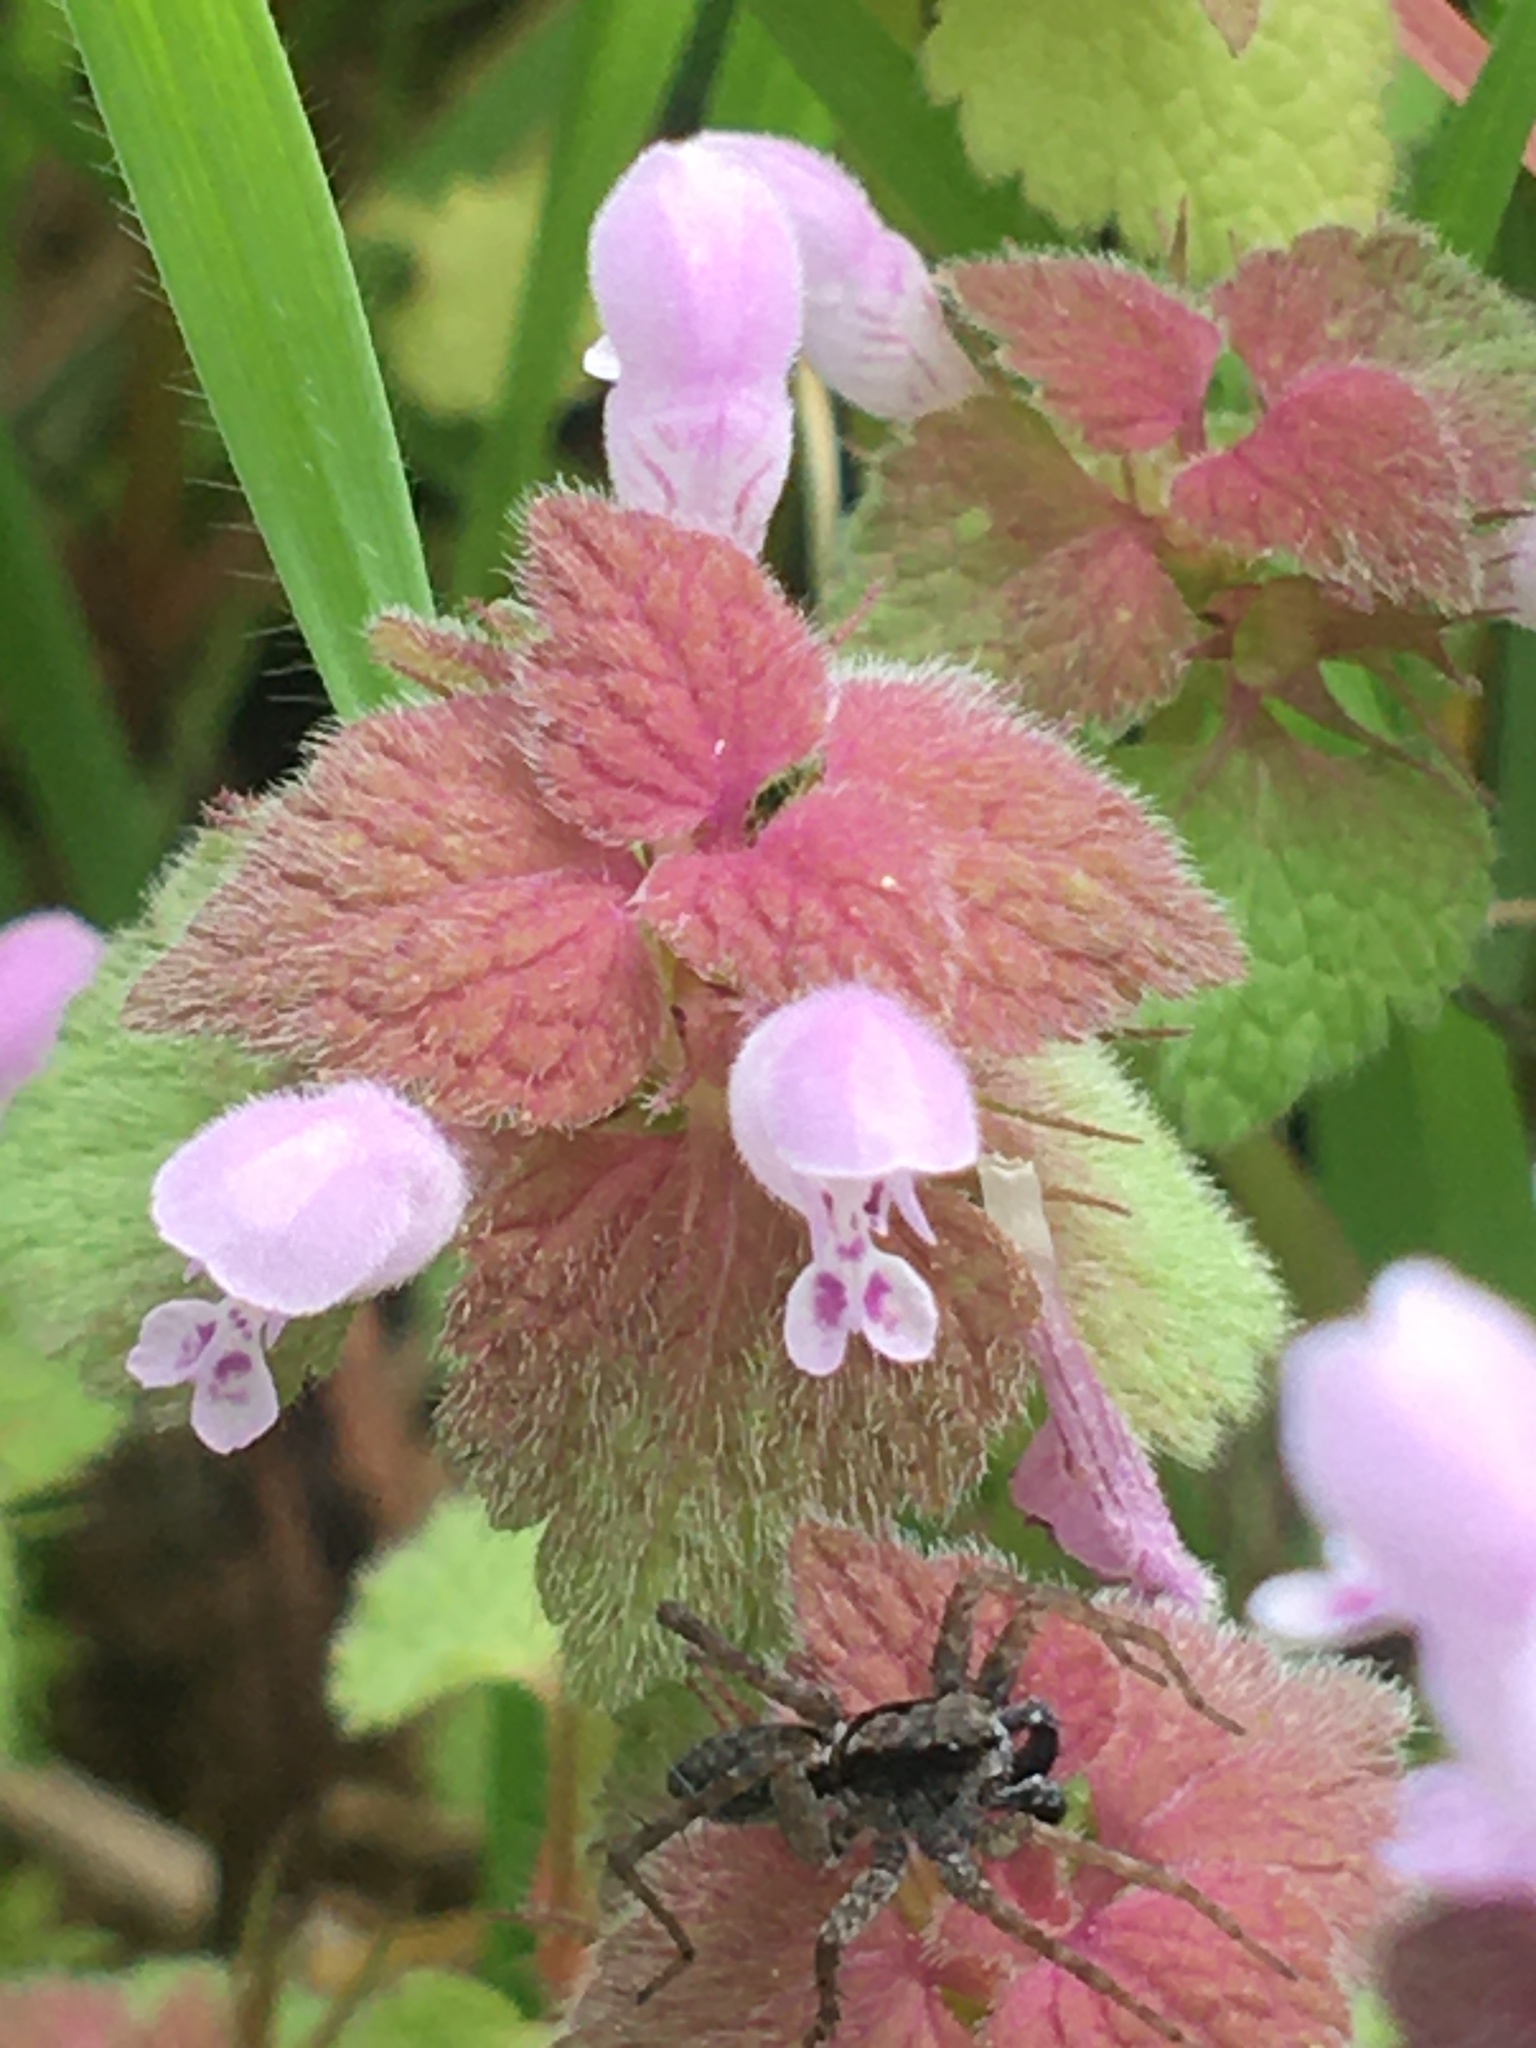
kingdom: Plantae
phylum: Tracheophyta
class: Magnoliopsida
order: Lamiales
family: Lamiaceae
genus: Lamium
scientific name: Lamium purpureum
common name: Red dead-nettle
